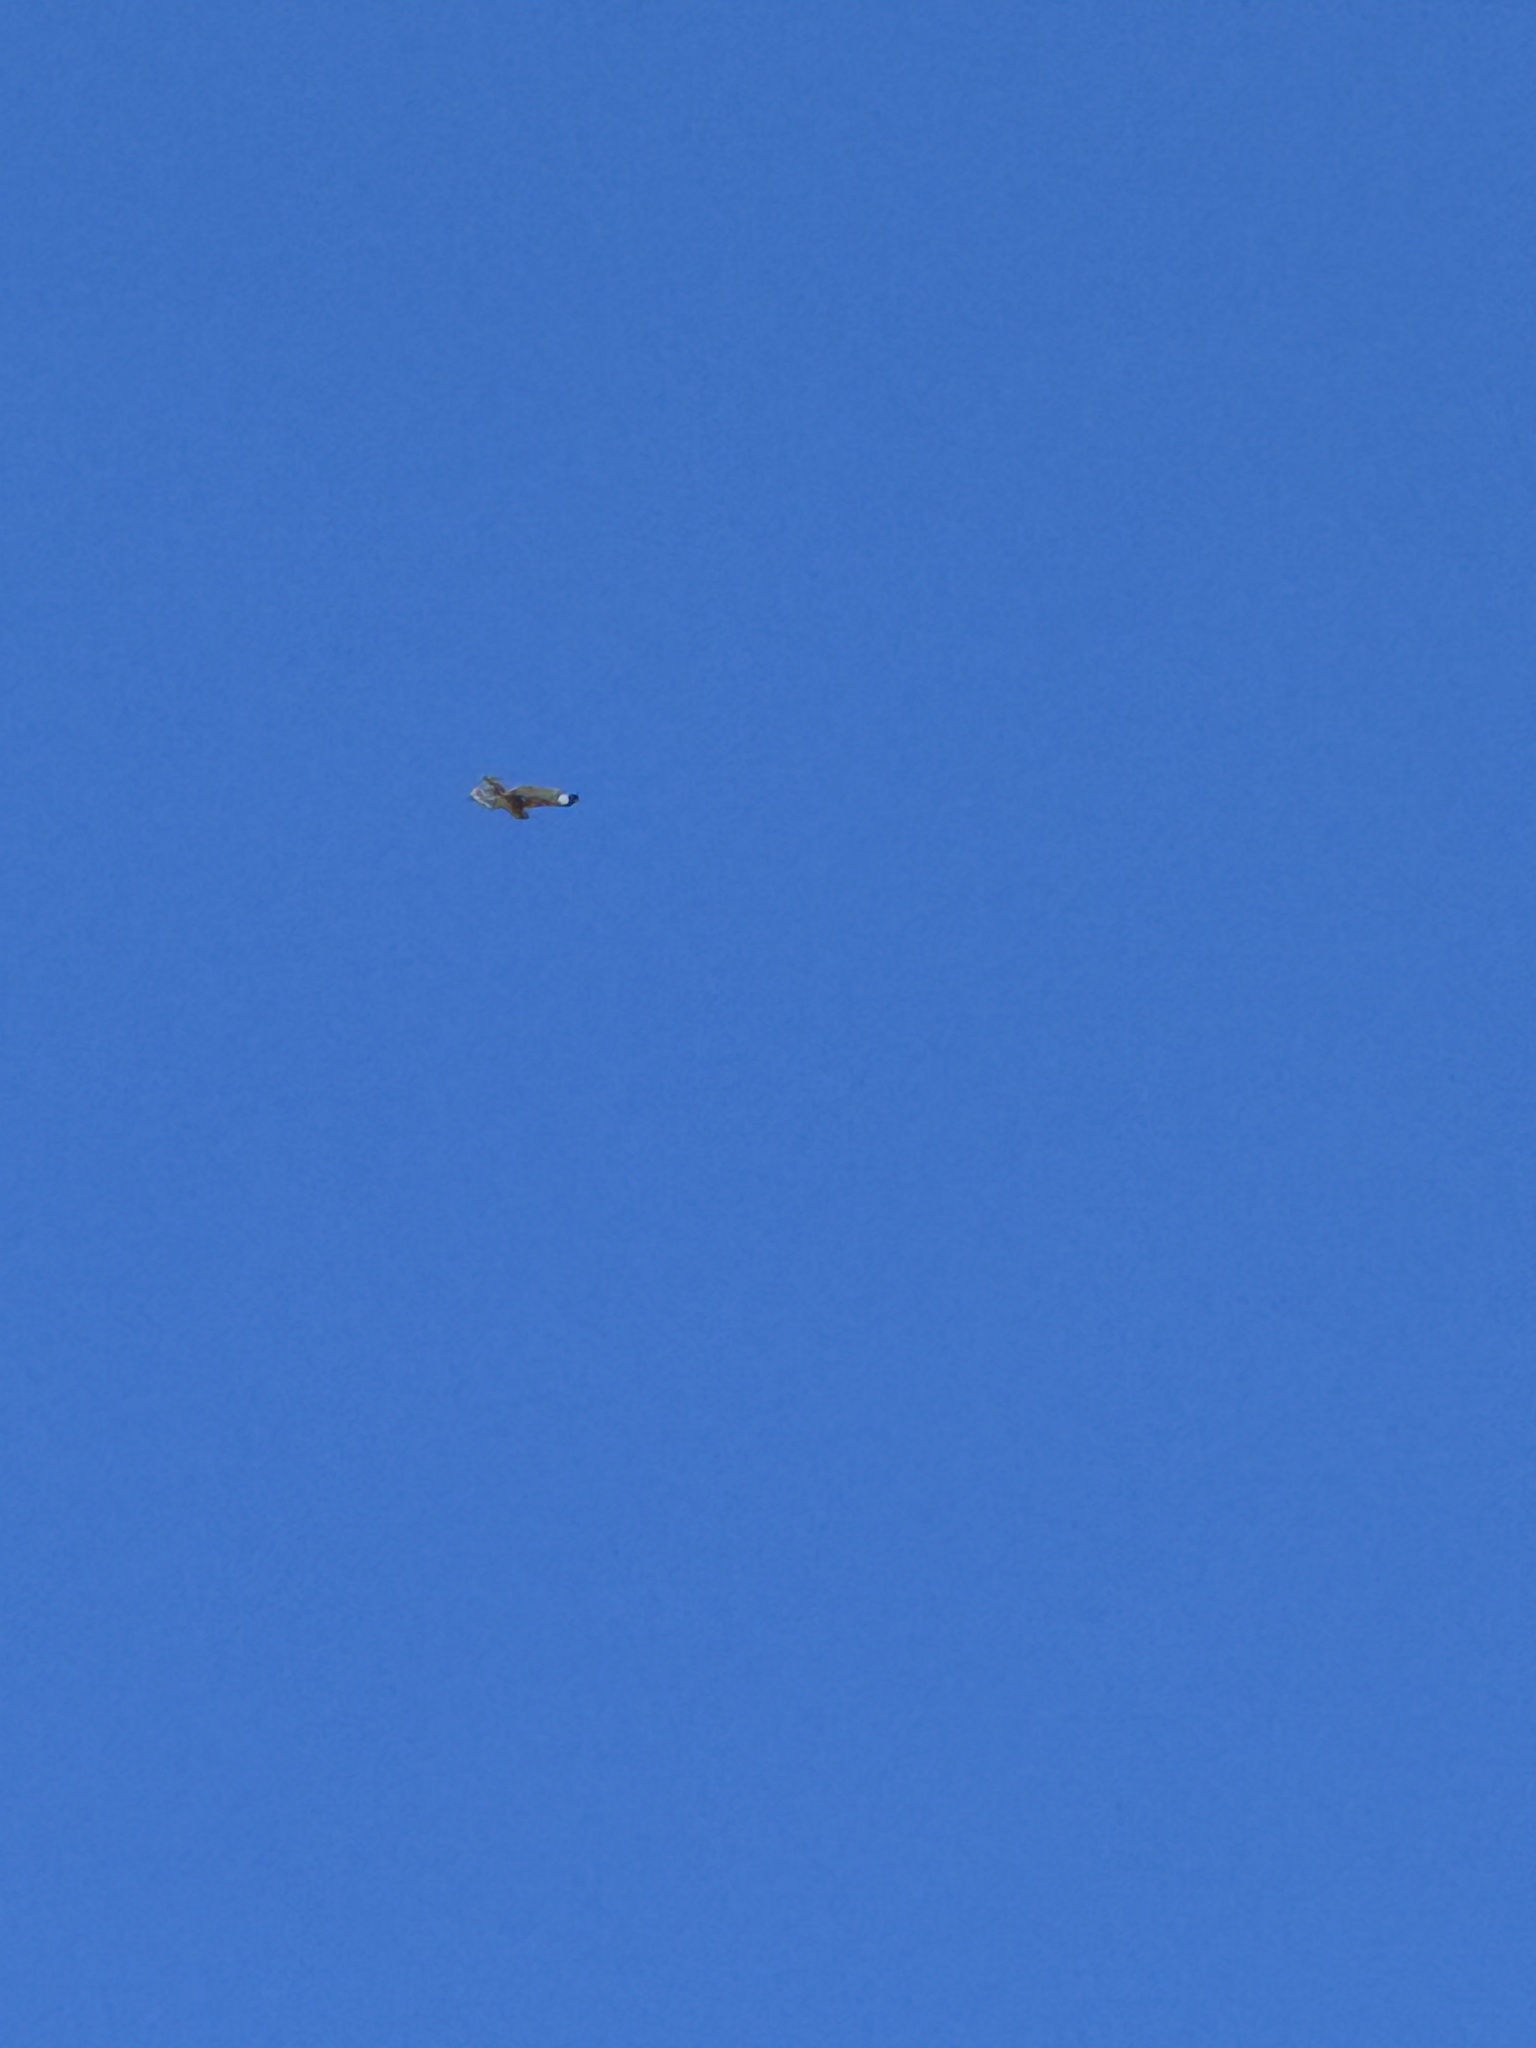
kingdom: Animalia
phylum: Chordata
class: Aves
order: Accipitriformes
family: Accipitridae
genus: Buteo
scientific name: Buteo jamaicensis
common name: Red-tailed hawk
